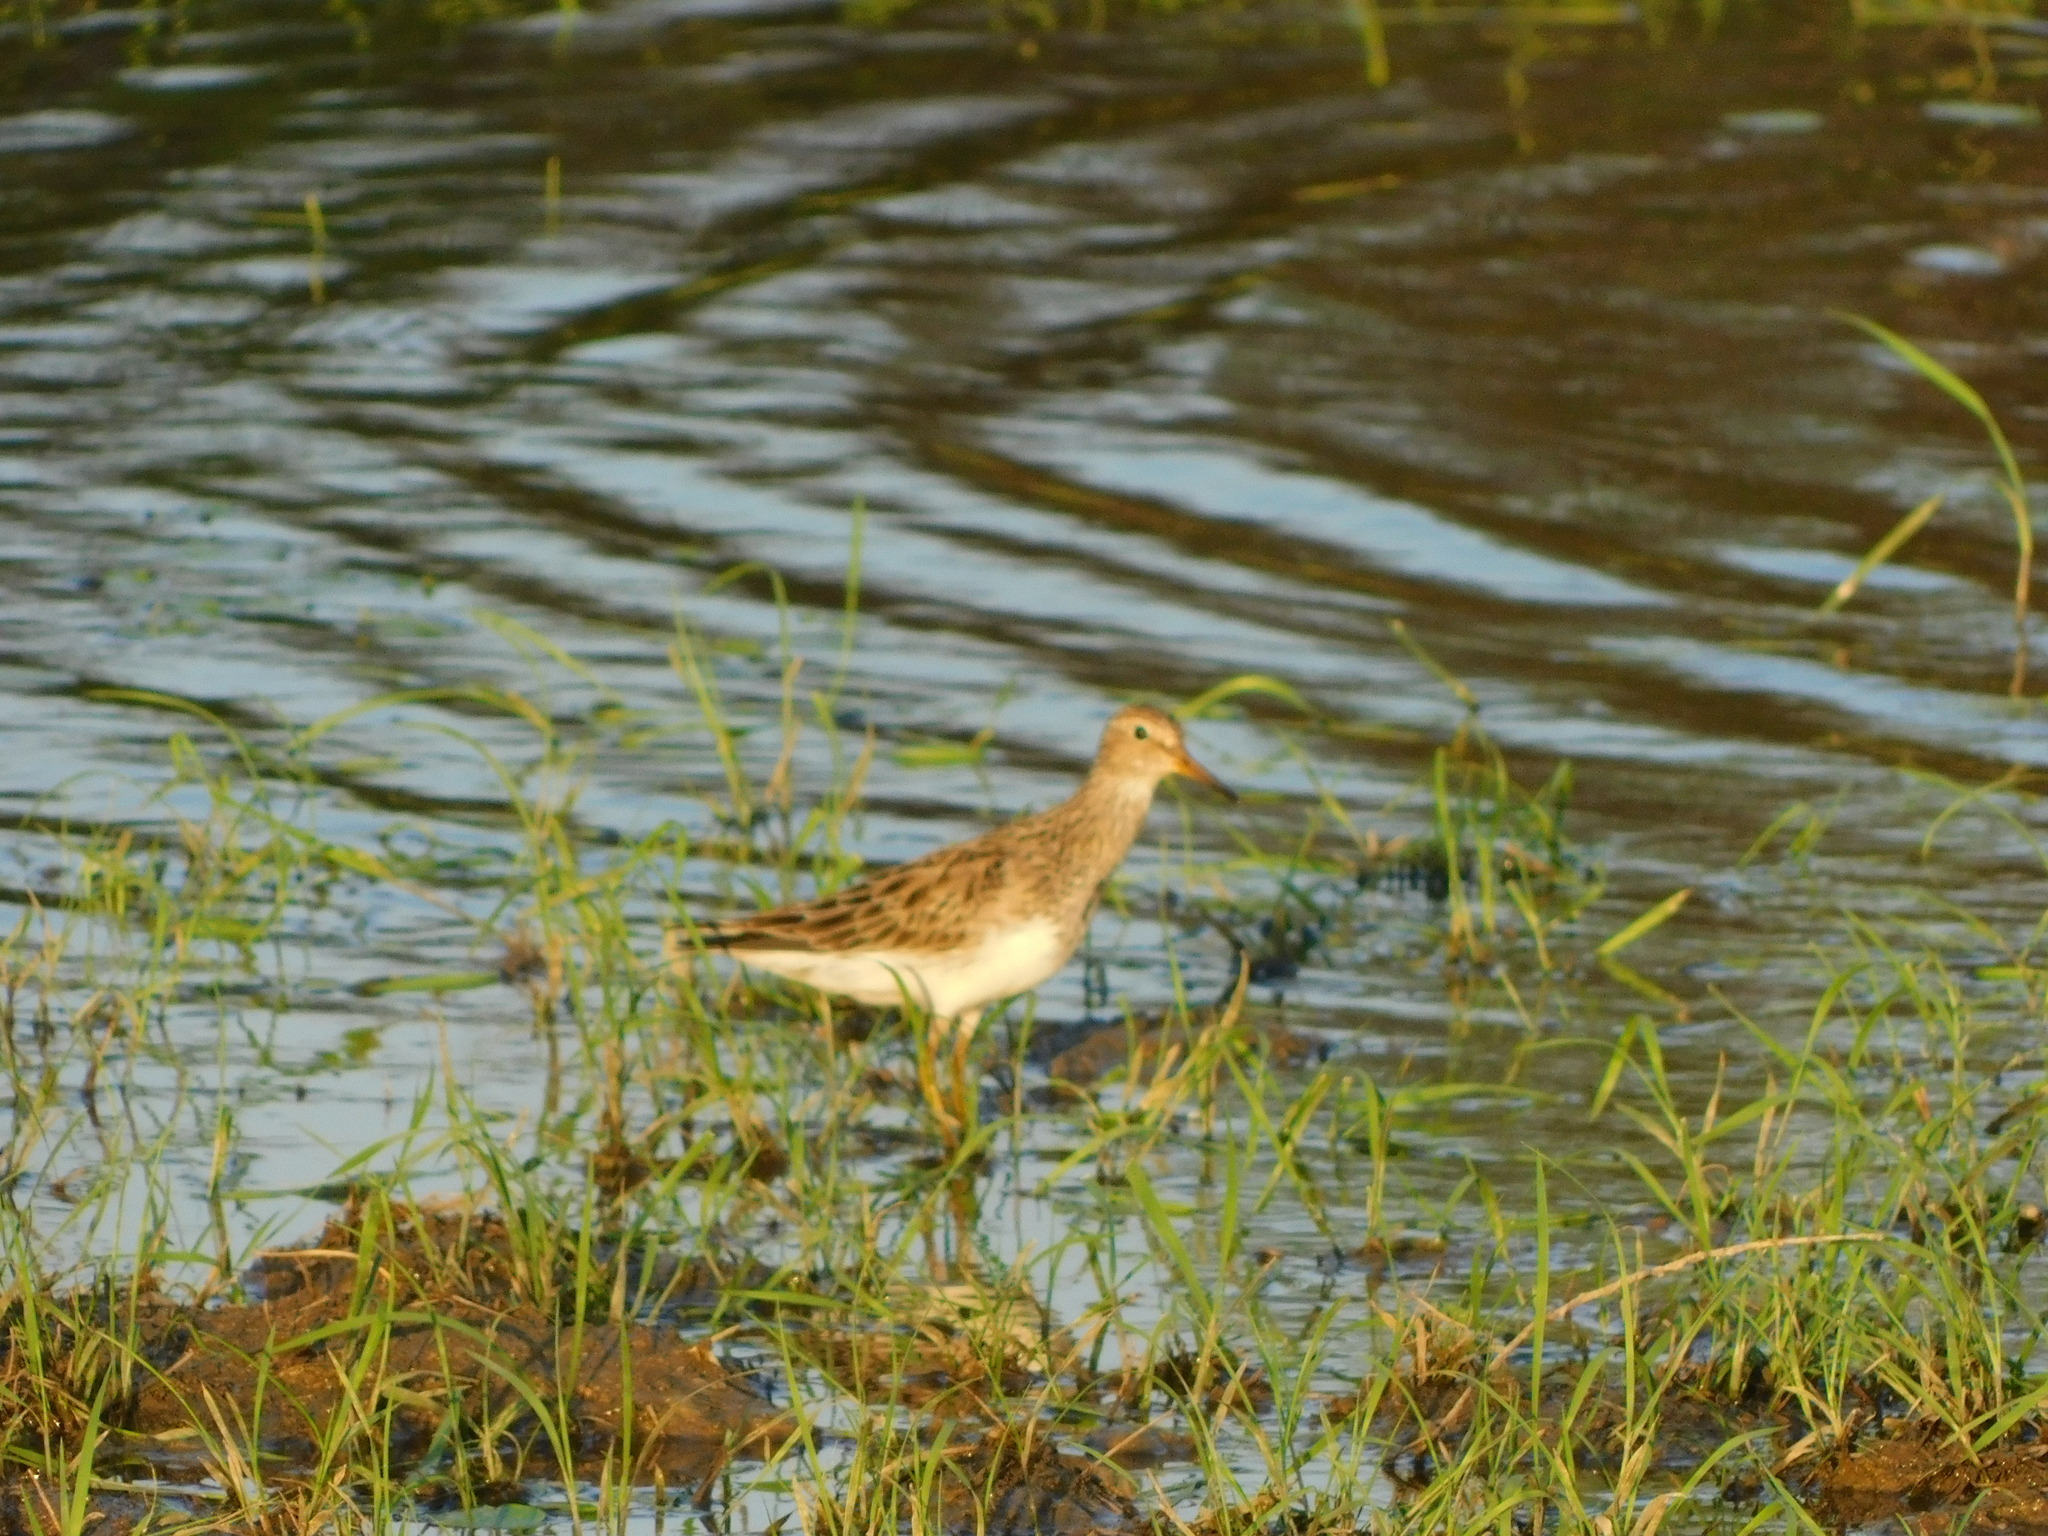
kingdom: Animalia
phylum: Chordata
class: Aves
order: Charadriiformes
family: Scolopacidae
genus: Calidris
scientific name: Calidris melanotos
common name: Pectoral sandpiper
